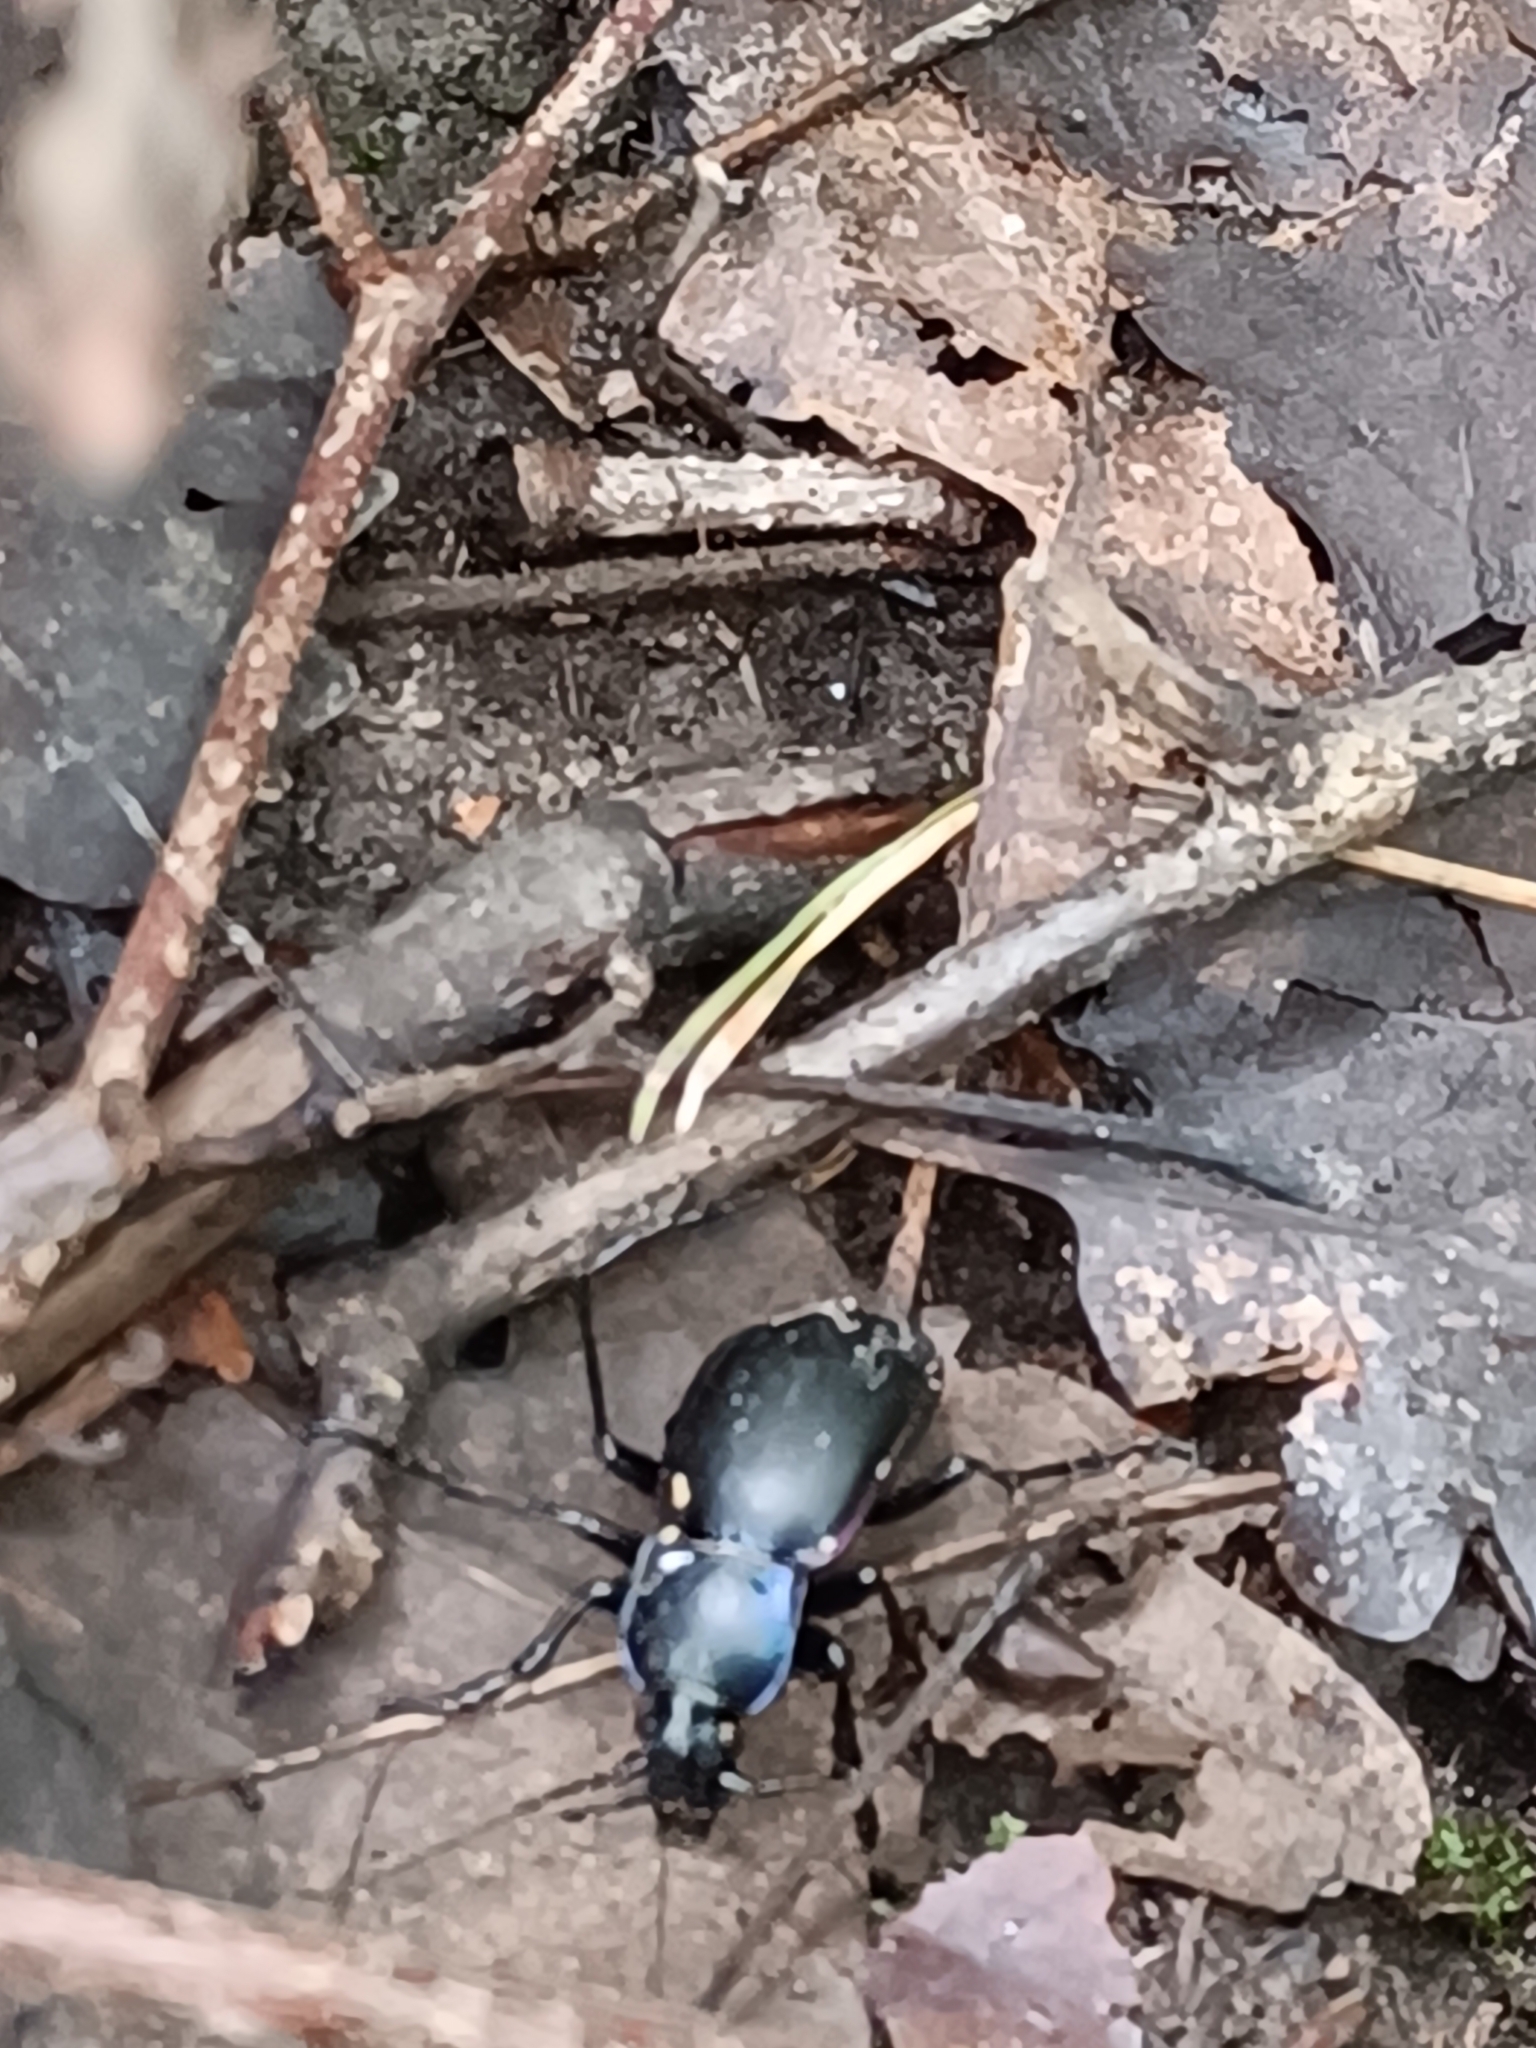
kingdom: Animalia
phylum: Arthropoda
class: Insecta
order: Coleoptera
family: Carabidae
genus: Carabus
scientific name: Carabus violaceus
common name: Violet ground beetle
